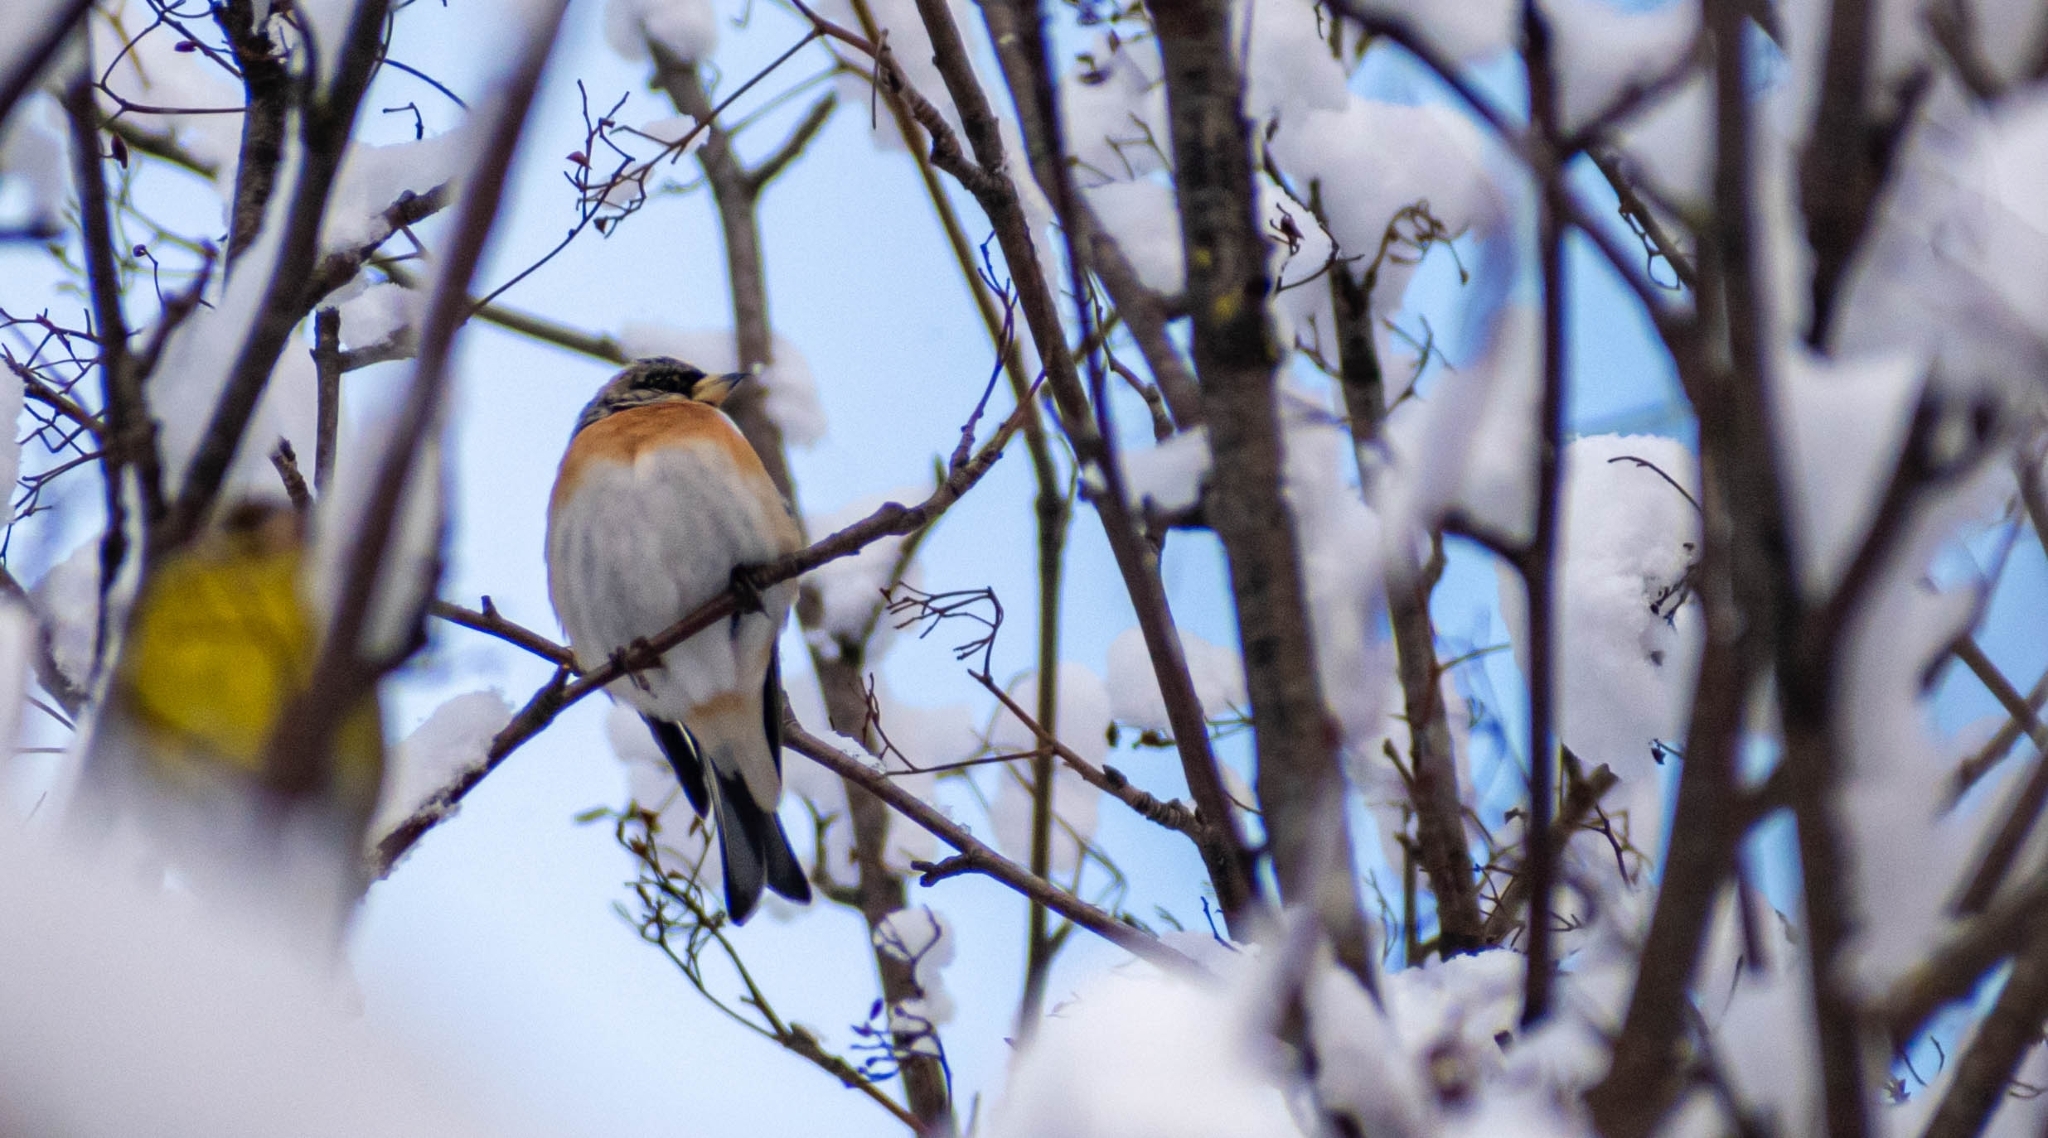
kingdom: Animalia
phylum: Chordata
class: Aves
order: Passeriformes
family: Fringillidae
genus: Fringilla
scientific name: Fringilla montifringilla
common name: Brambling
